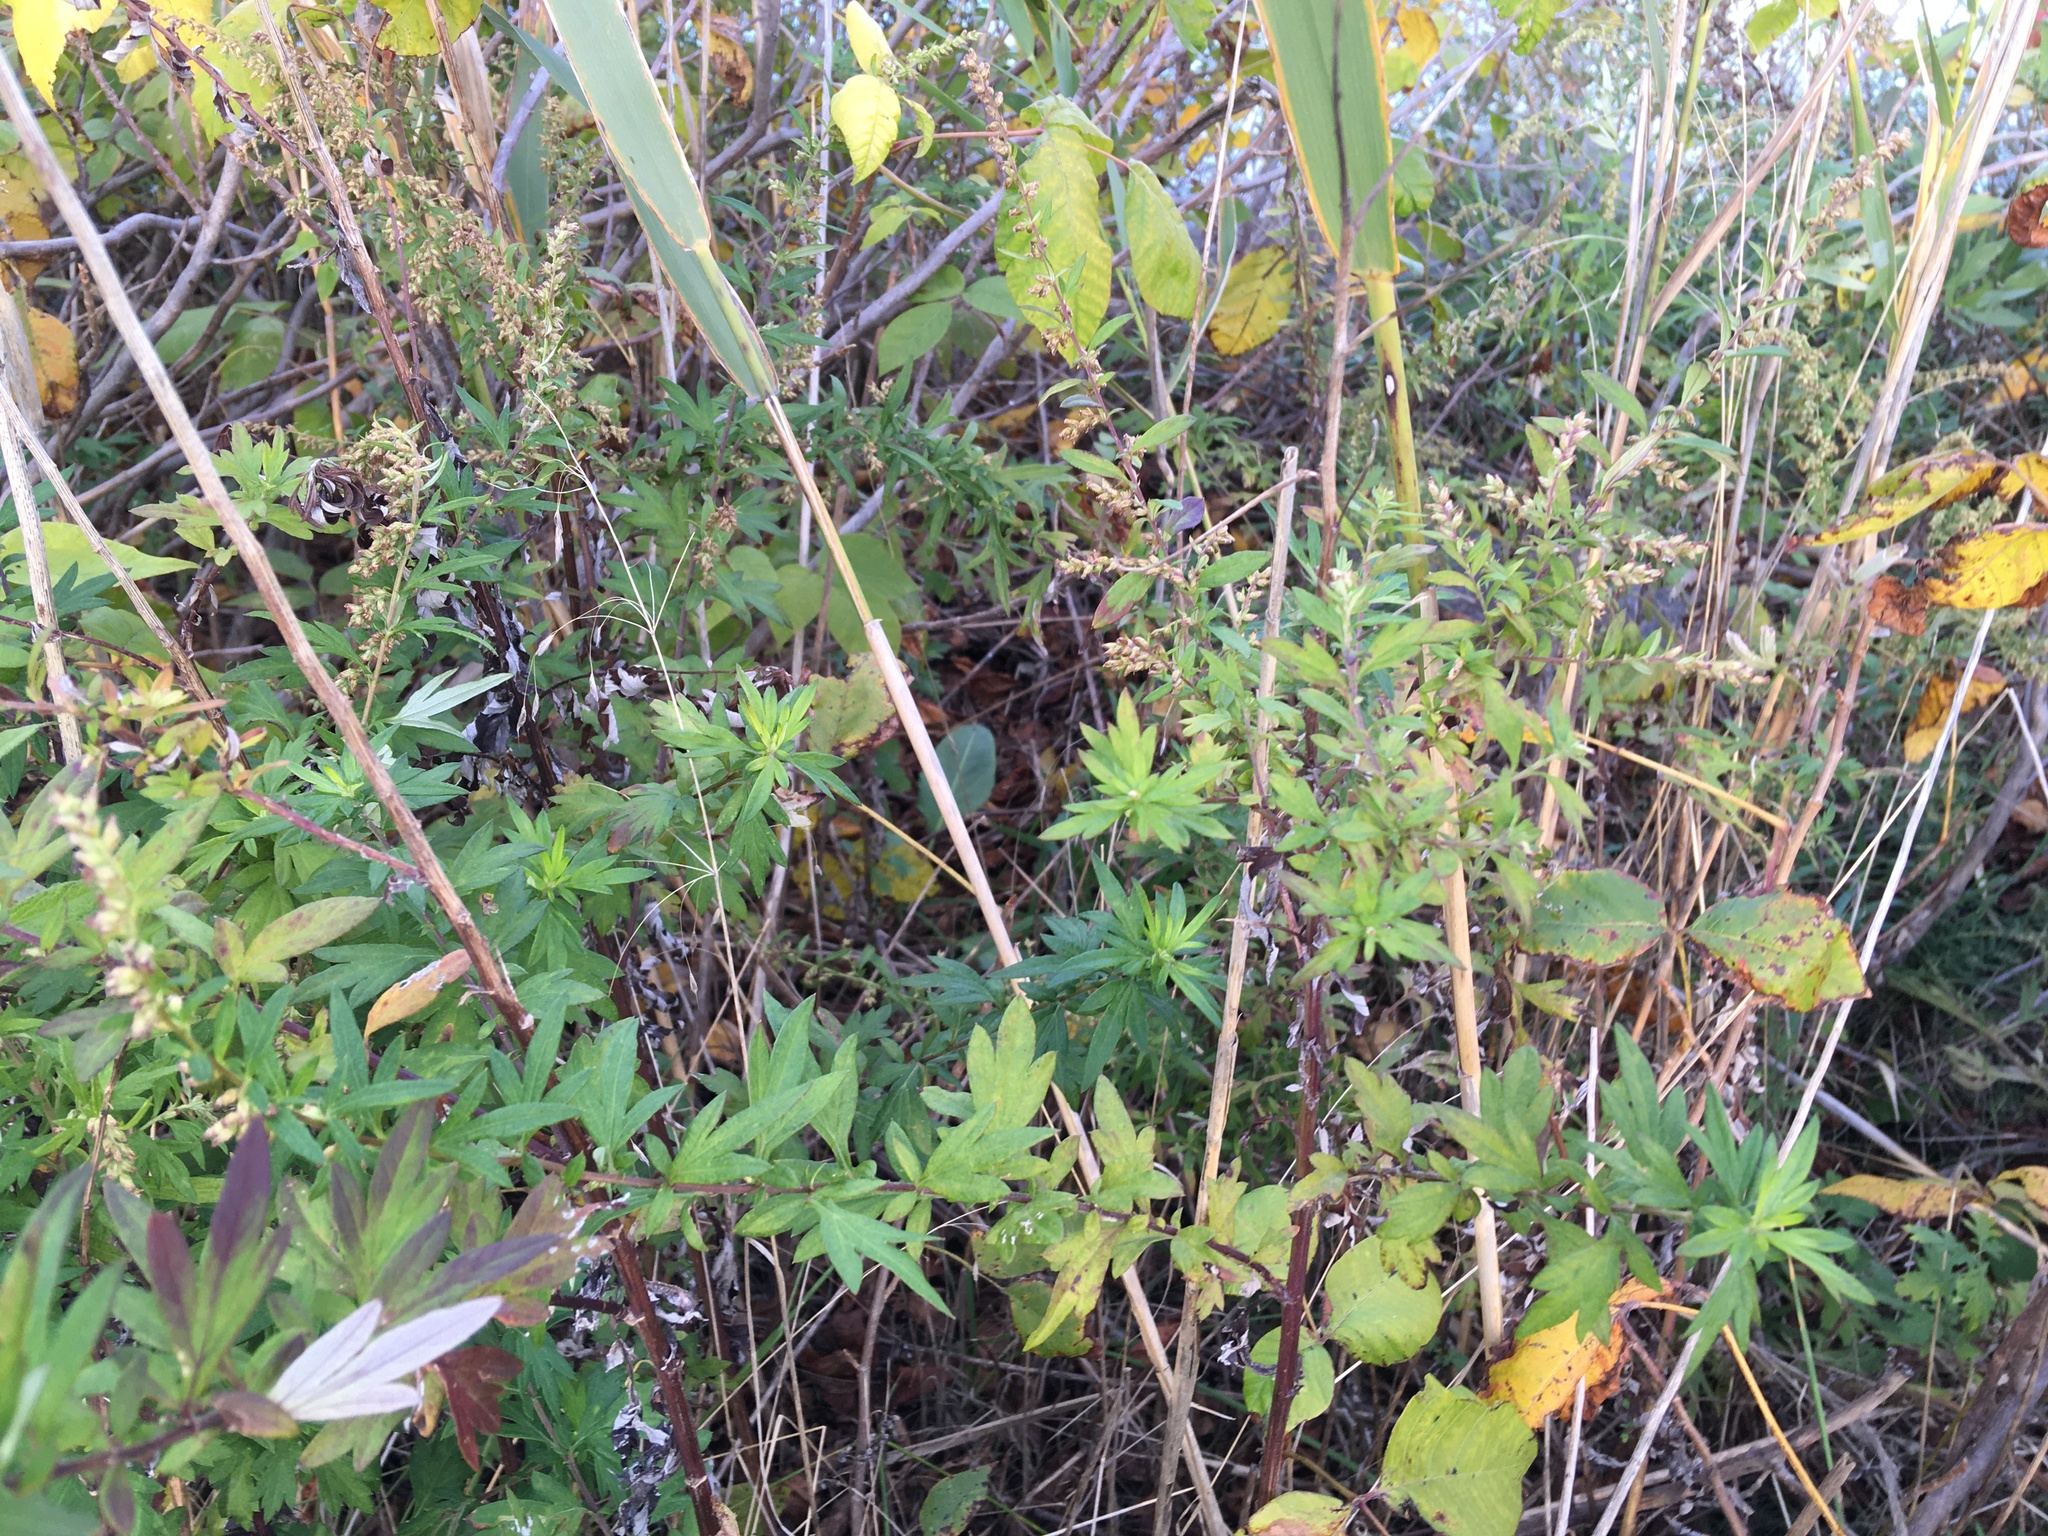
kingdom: Plantae
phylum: Tracheophyta
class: Magnoliopsida
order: Asterales
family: Asteraceae
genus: Artemisia
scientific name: Artemisia vulgaris
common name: Mugwort
